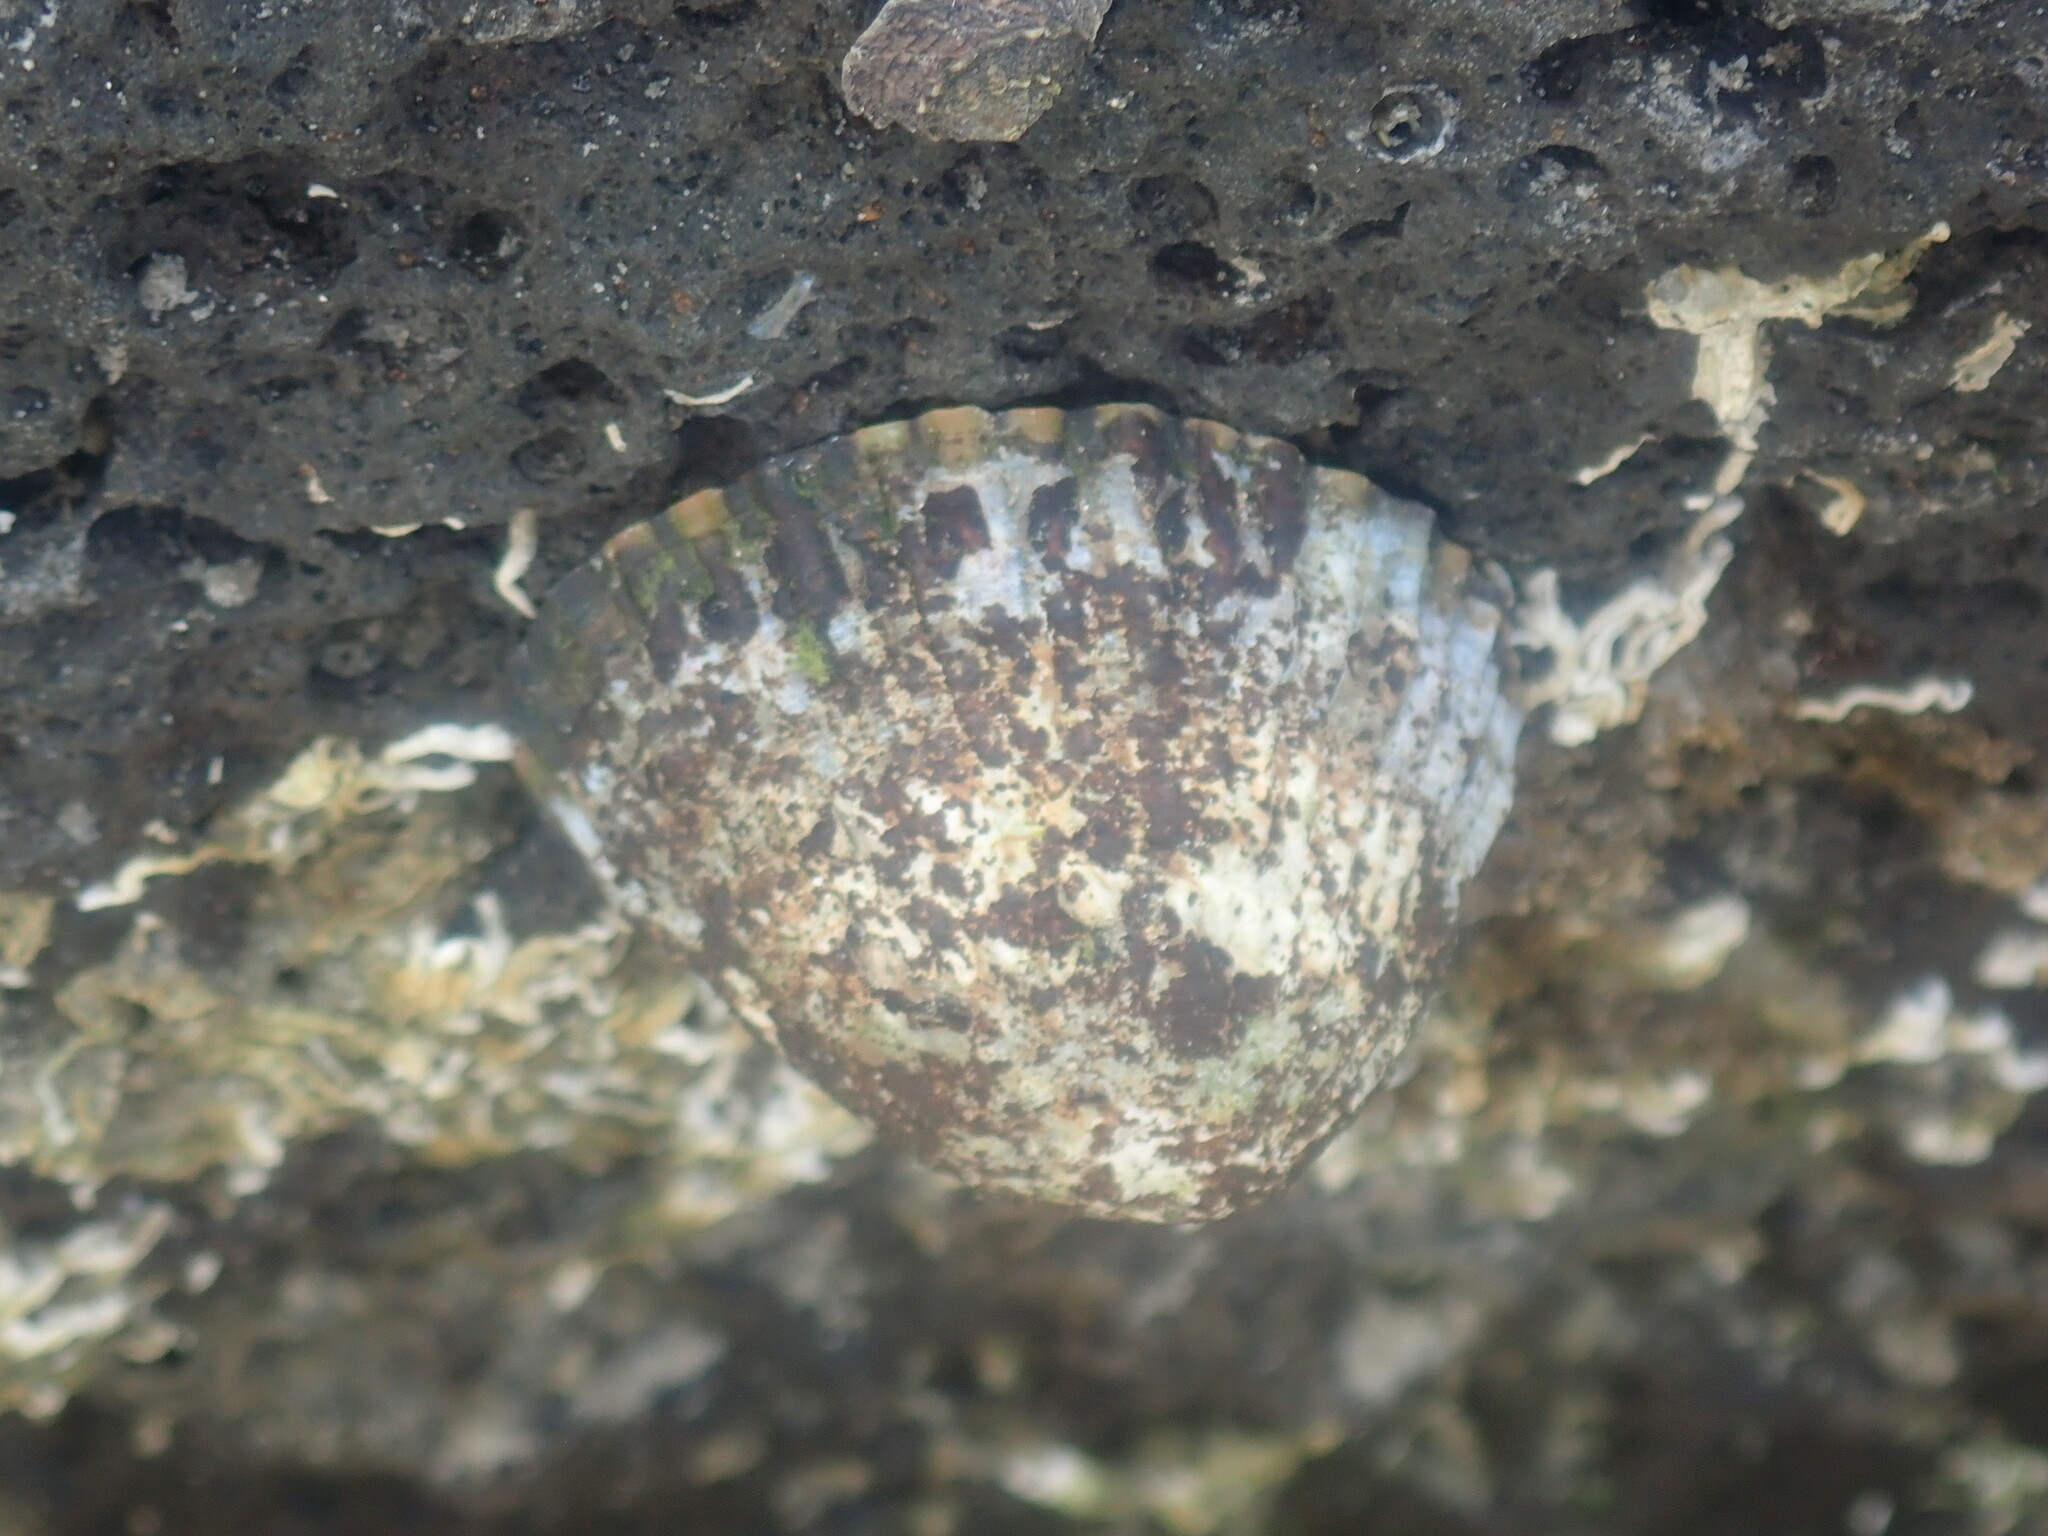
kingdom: Animalia
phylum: Mollusca
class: Gastropoda
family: Nacellidae
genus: Cellana
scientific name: Cellana tramoserica
